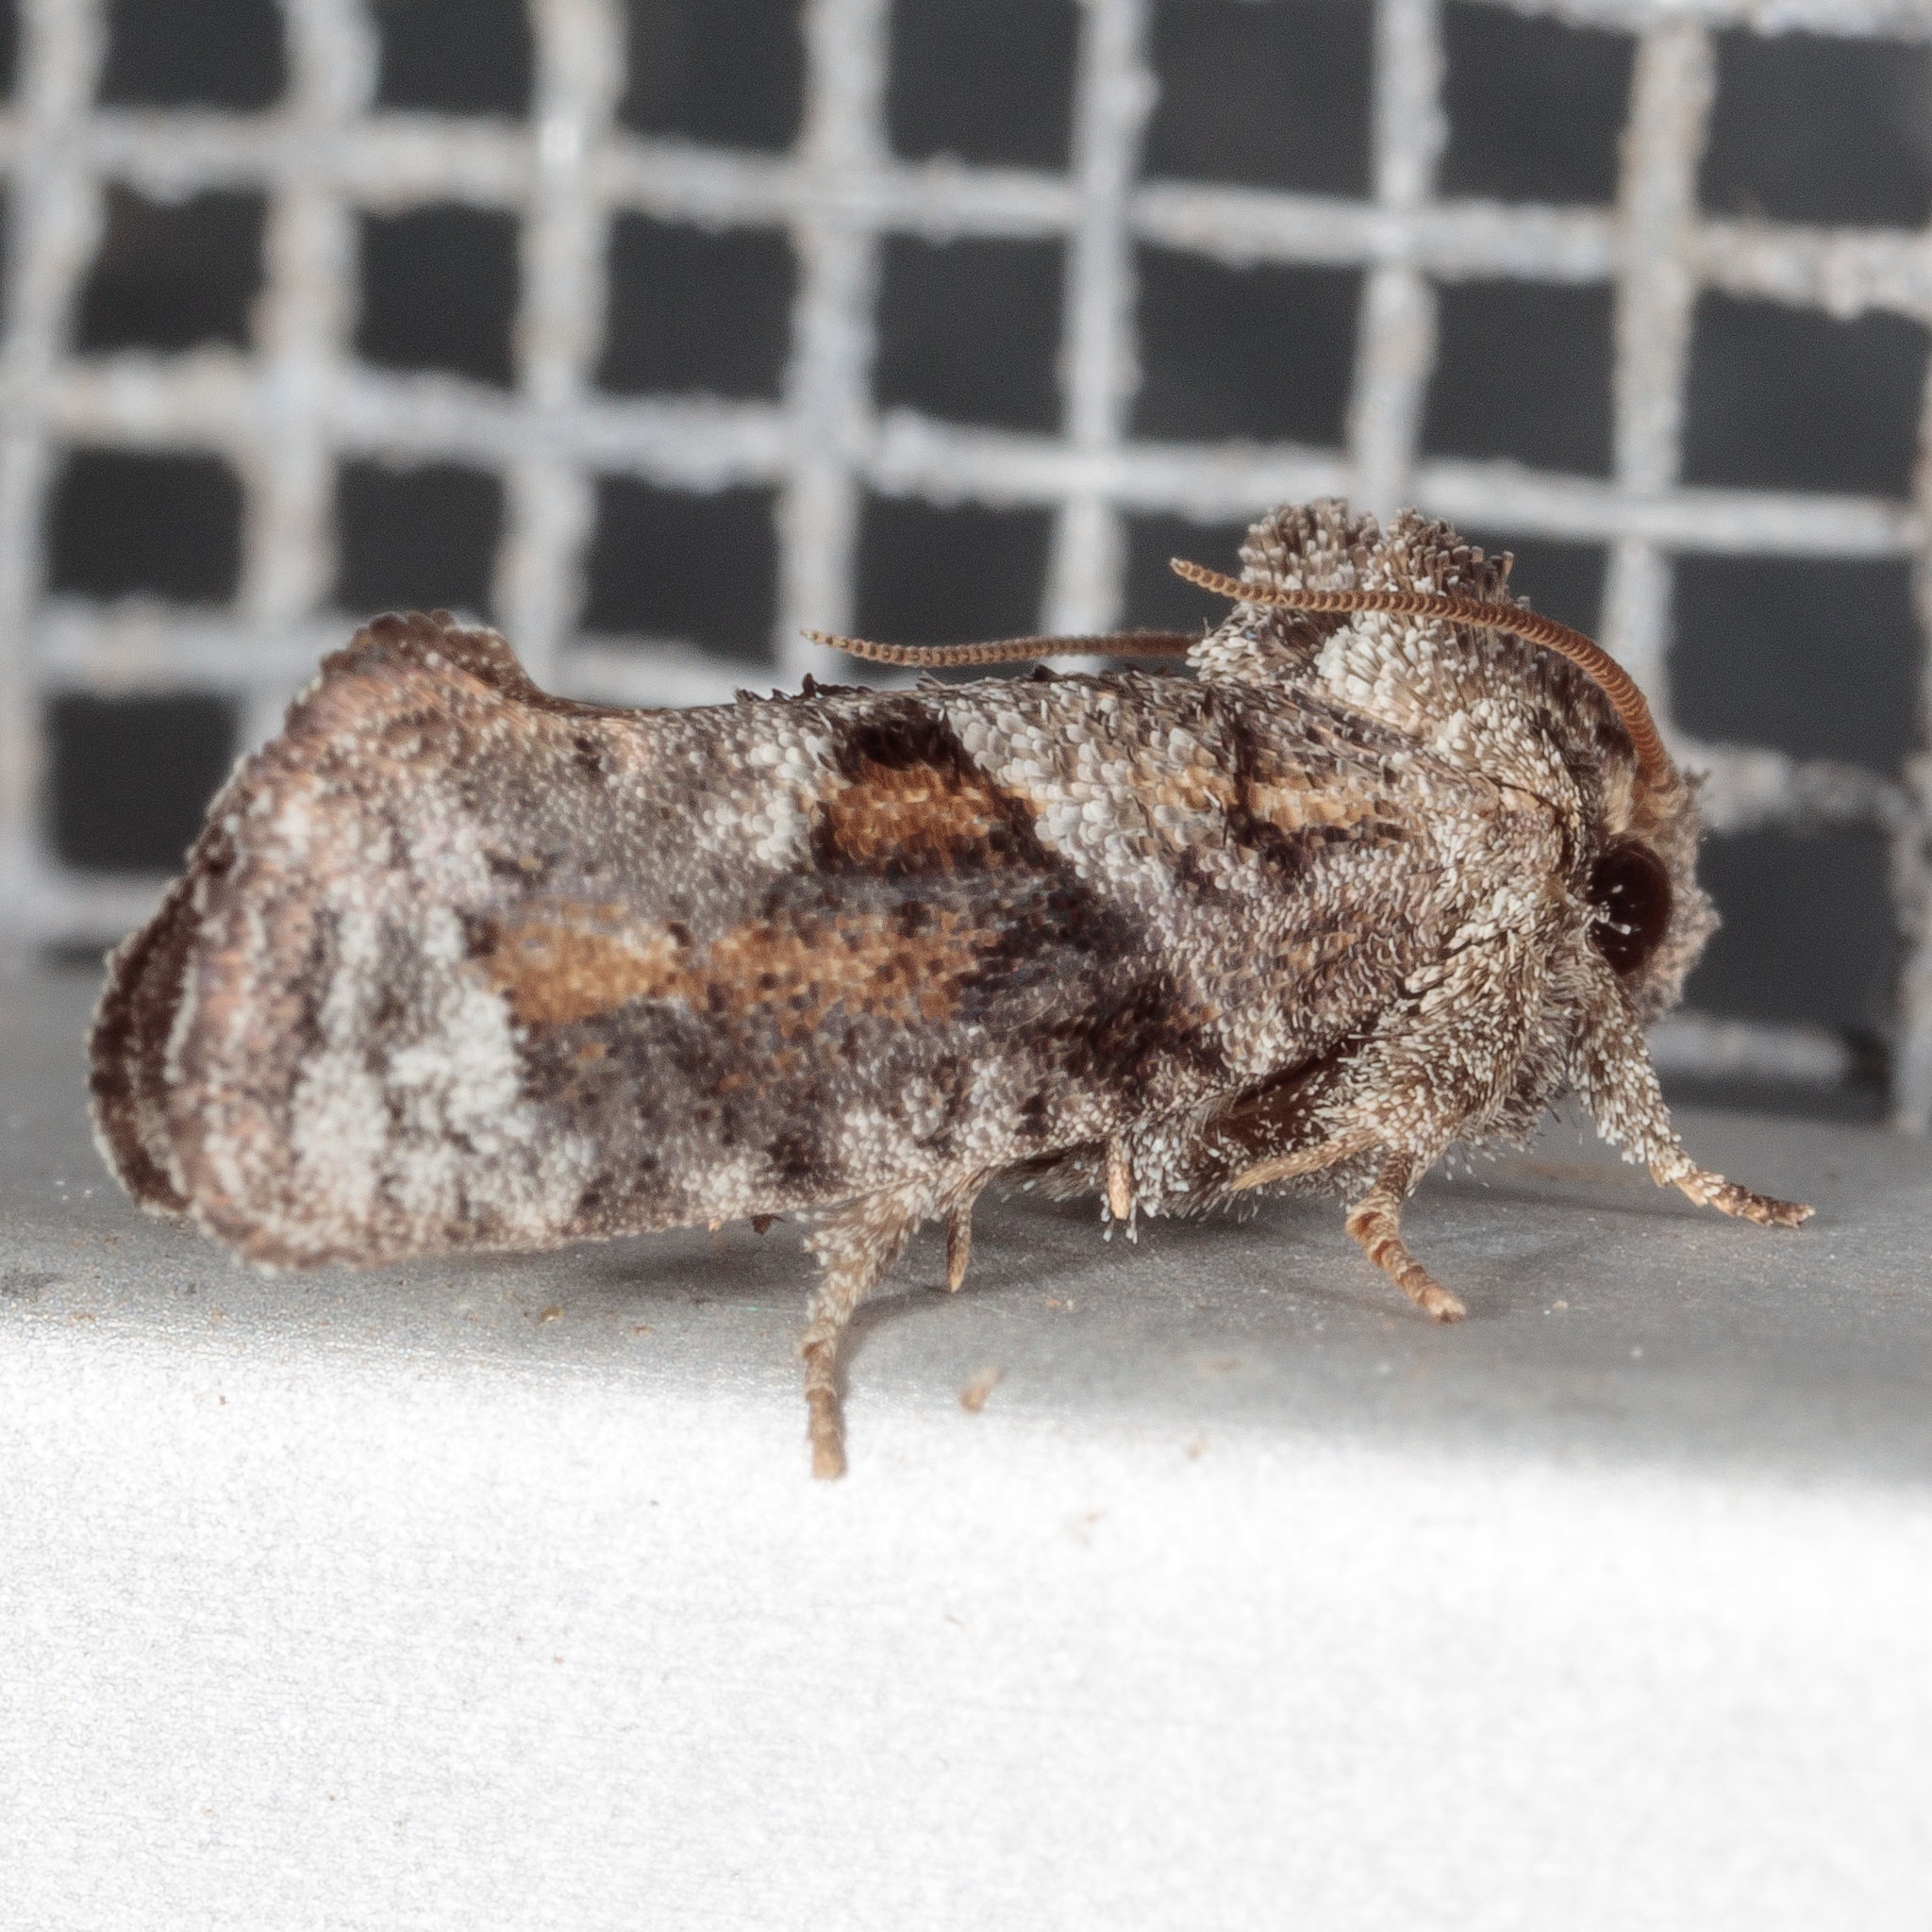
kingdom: Animalia
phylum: Arthropoda
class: Insecta
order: Lepidoptera
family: Tineidae
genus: Acrolophus
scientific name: Acrolophus piger
